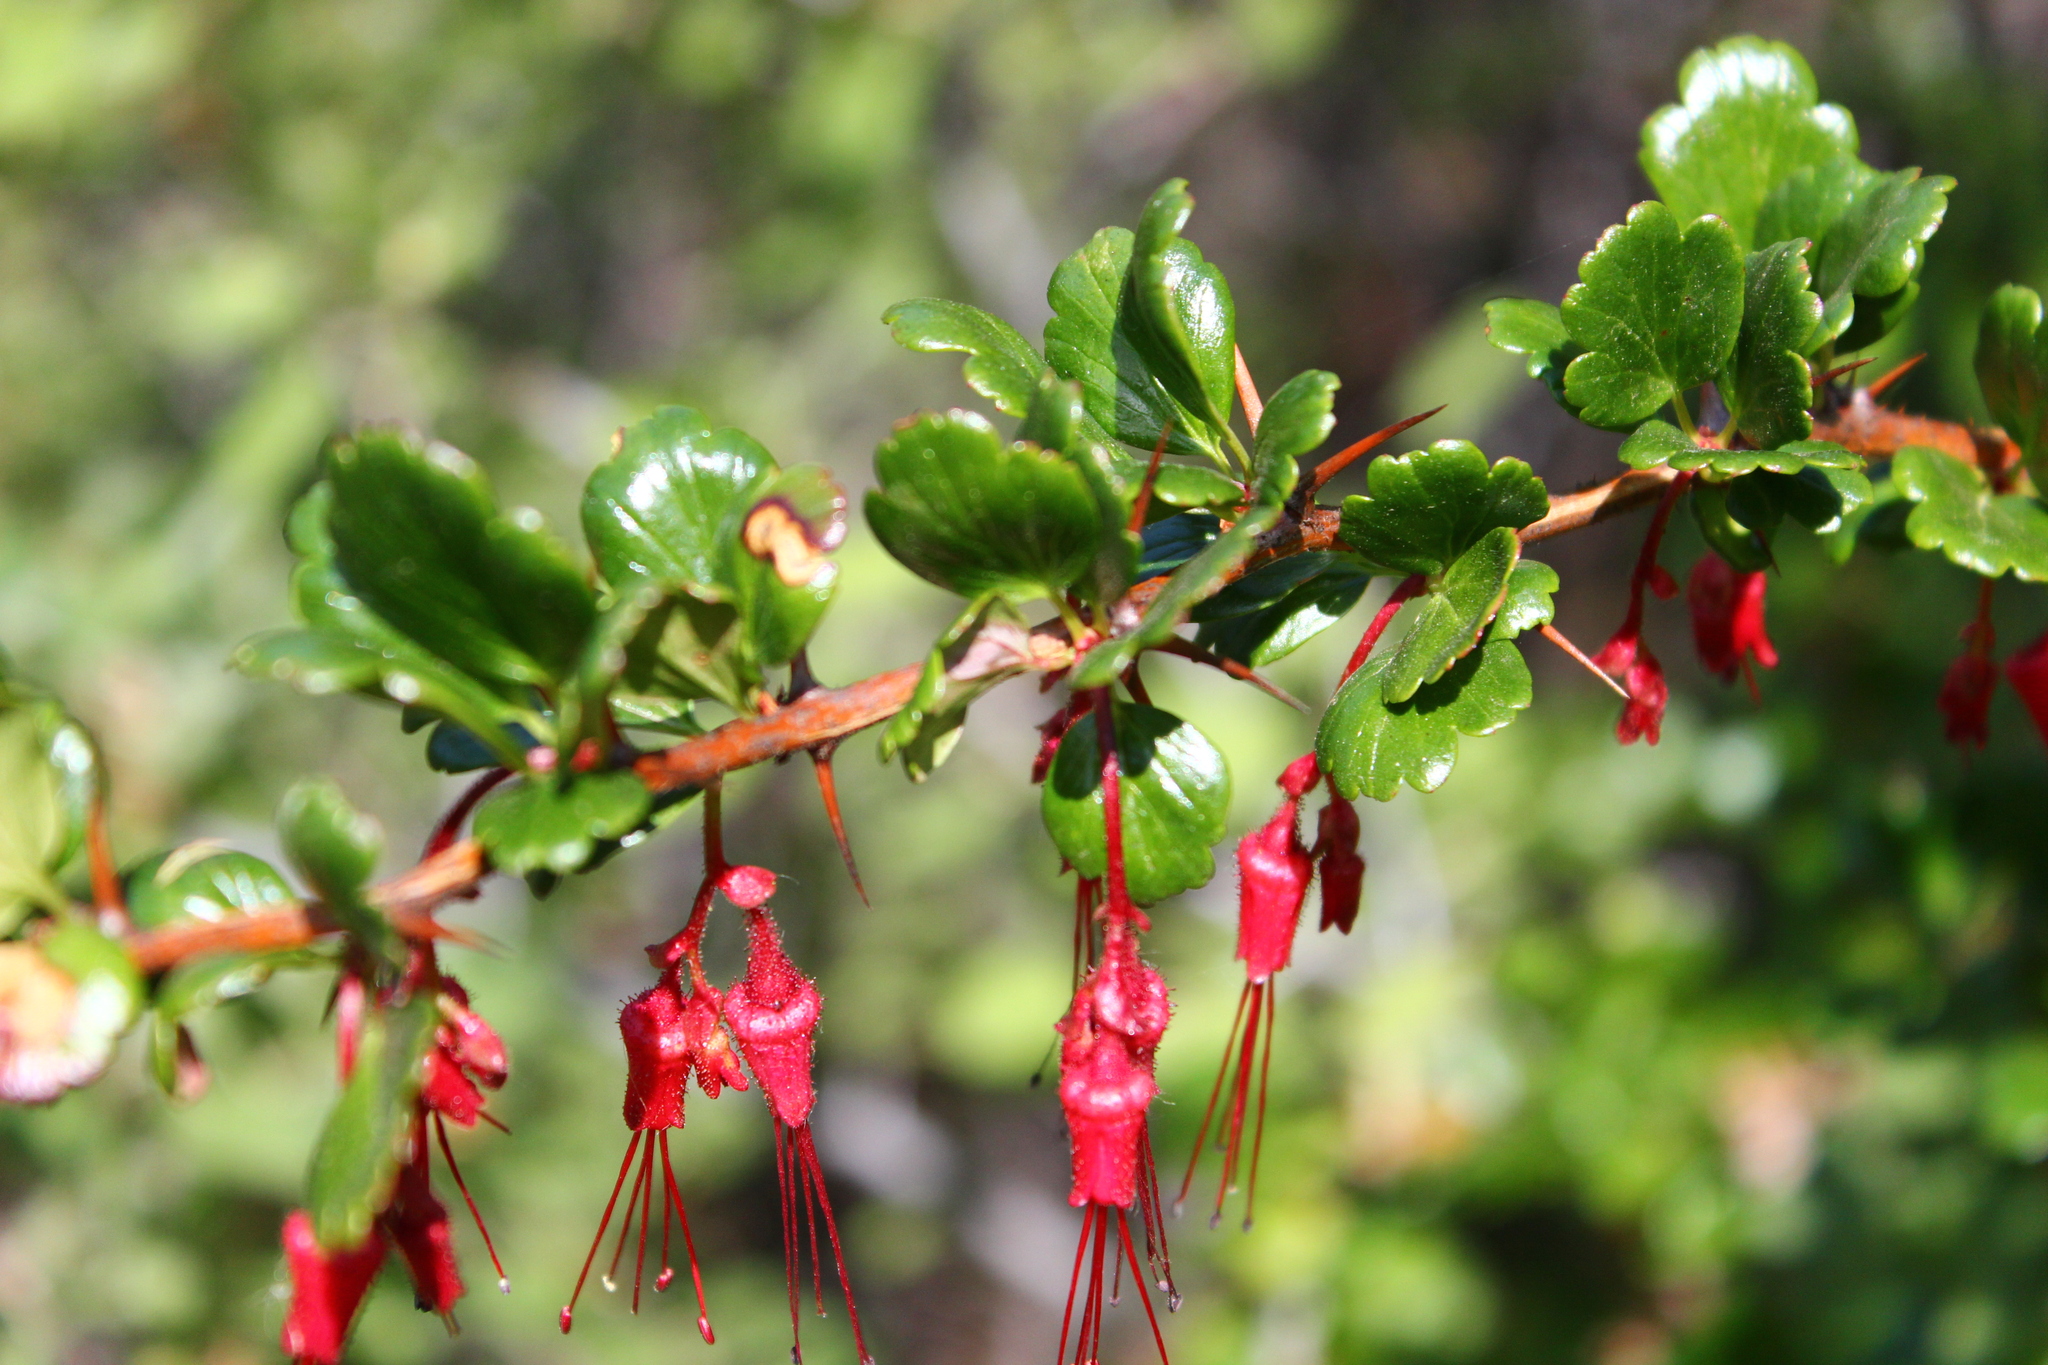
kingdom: Plantae
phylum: Tracheophyta
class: Magnoliopsida
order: Saxifragales
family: Grossulariaceae
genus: Ribes
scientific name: Ribes speciosum
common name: Fuchsia-flower gooseberry
